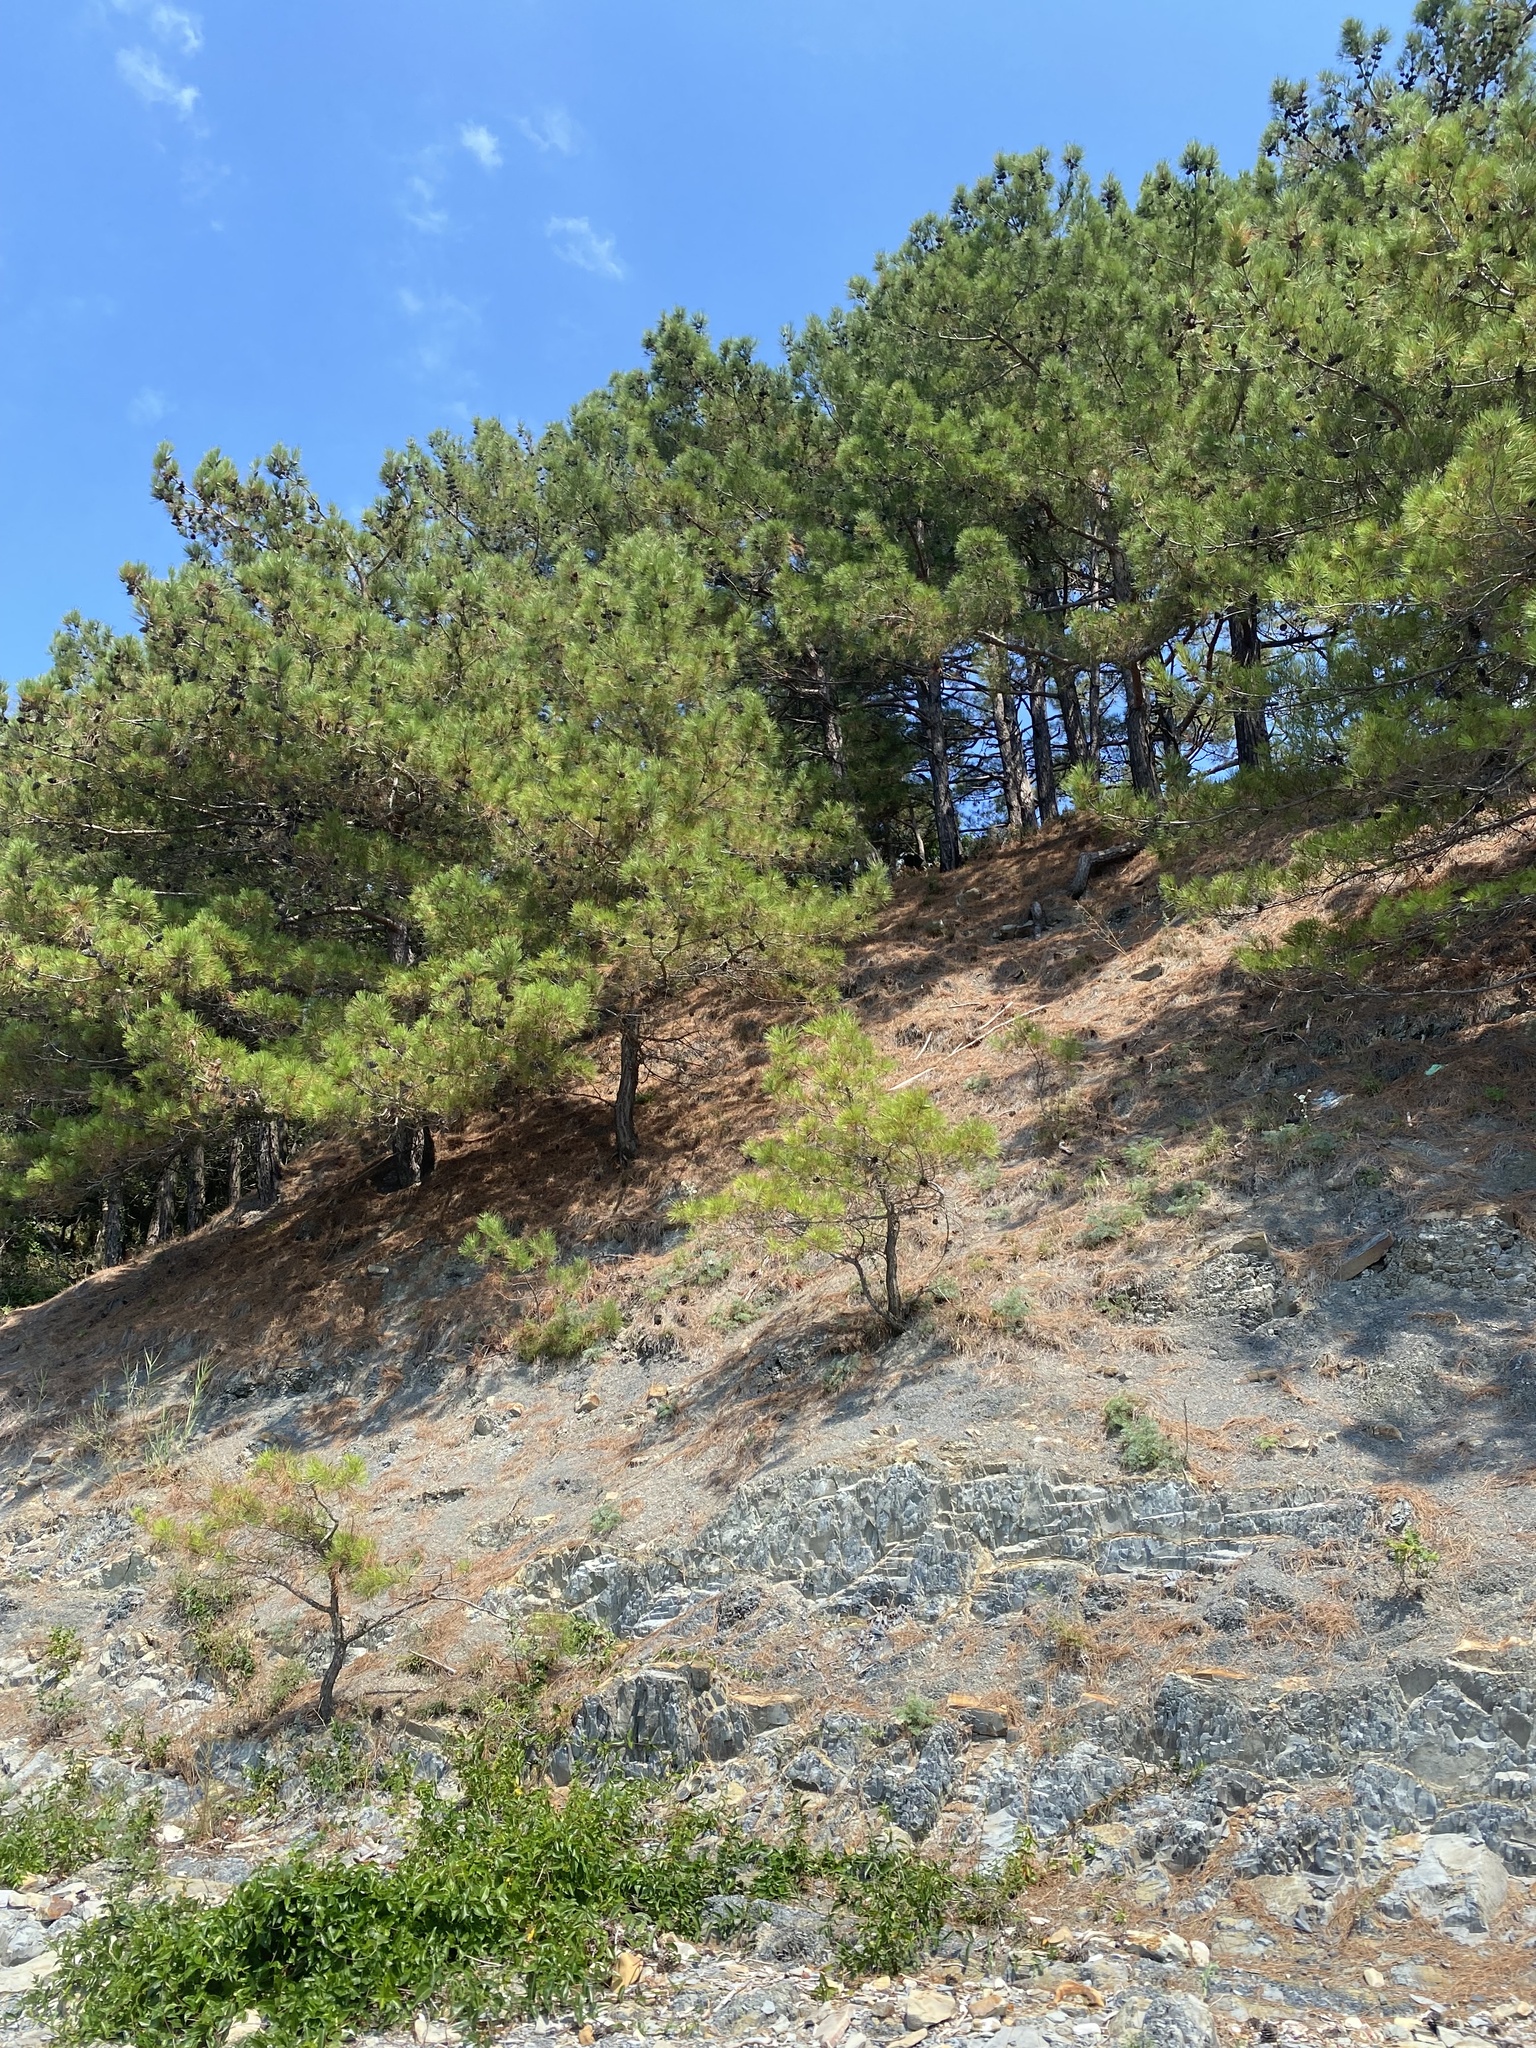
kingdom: Plantae
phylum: Tracheophyta
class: Pinopsida
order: Pinales
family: Pinaceae
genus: Pinus
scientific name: Pinus brutia
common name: Turkish pine
